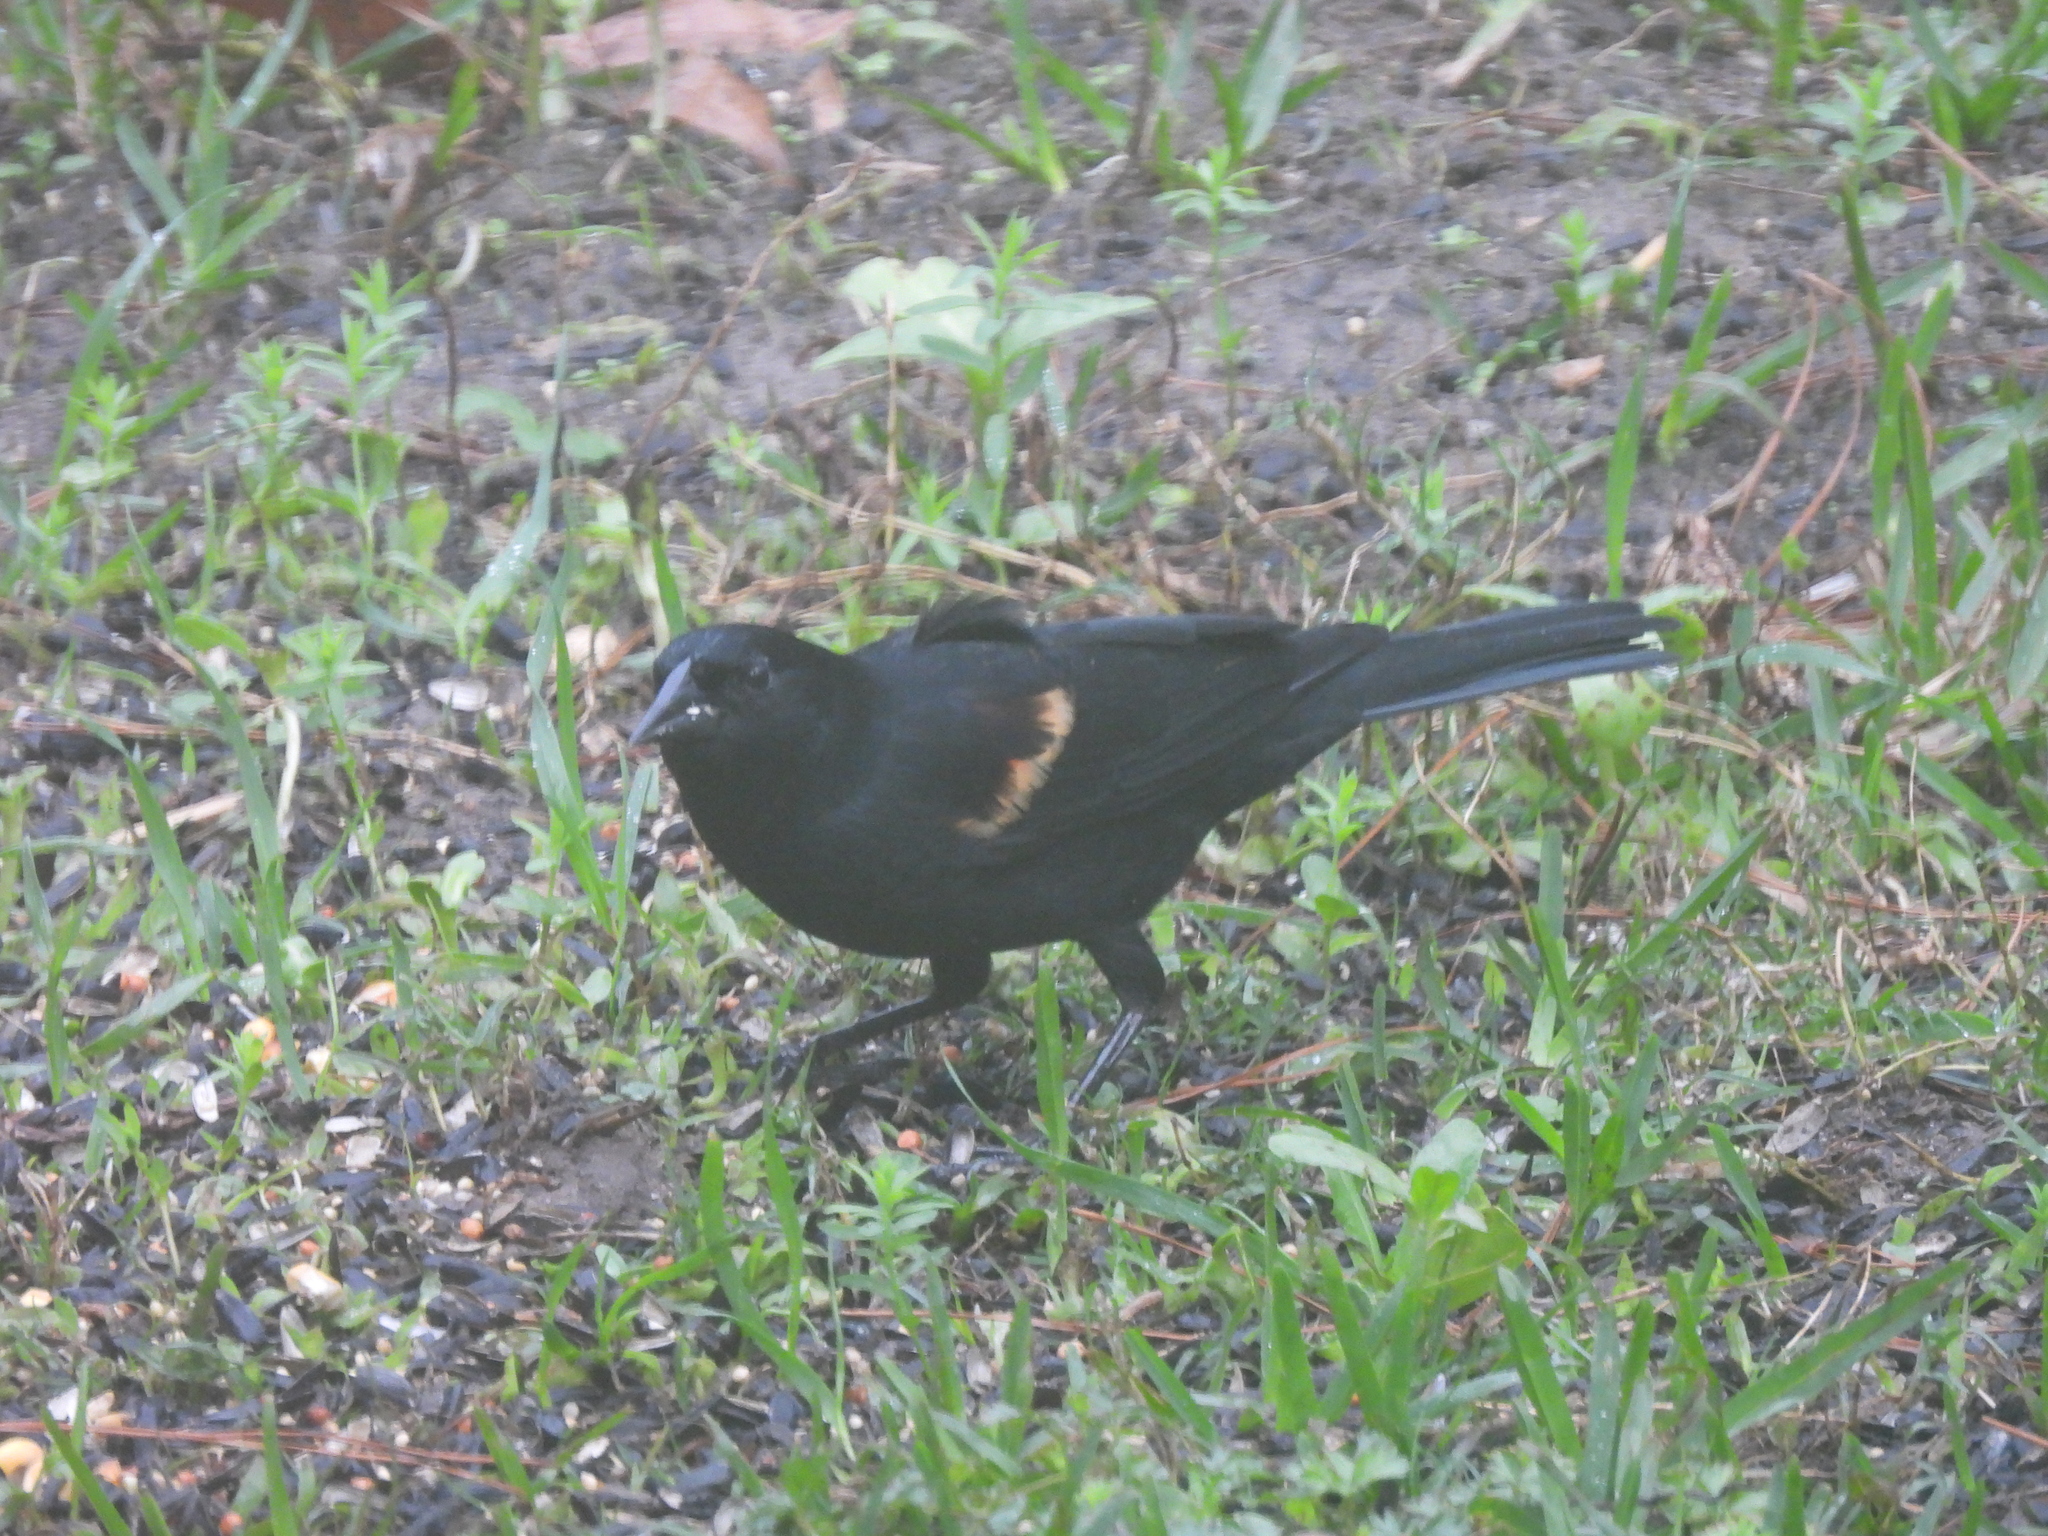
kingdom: Animalia
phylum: Chordata
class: Aves
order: Passeriformes
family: Icteridae
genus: Agelaius
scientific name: Agelaius phoeniceus
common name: Red-winged blackbird
